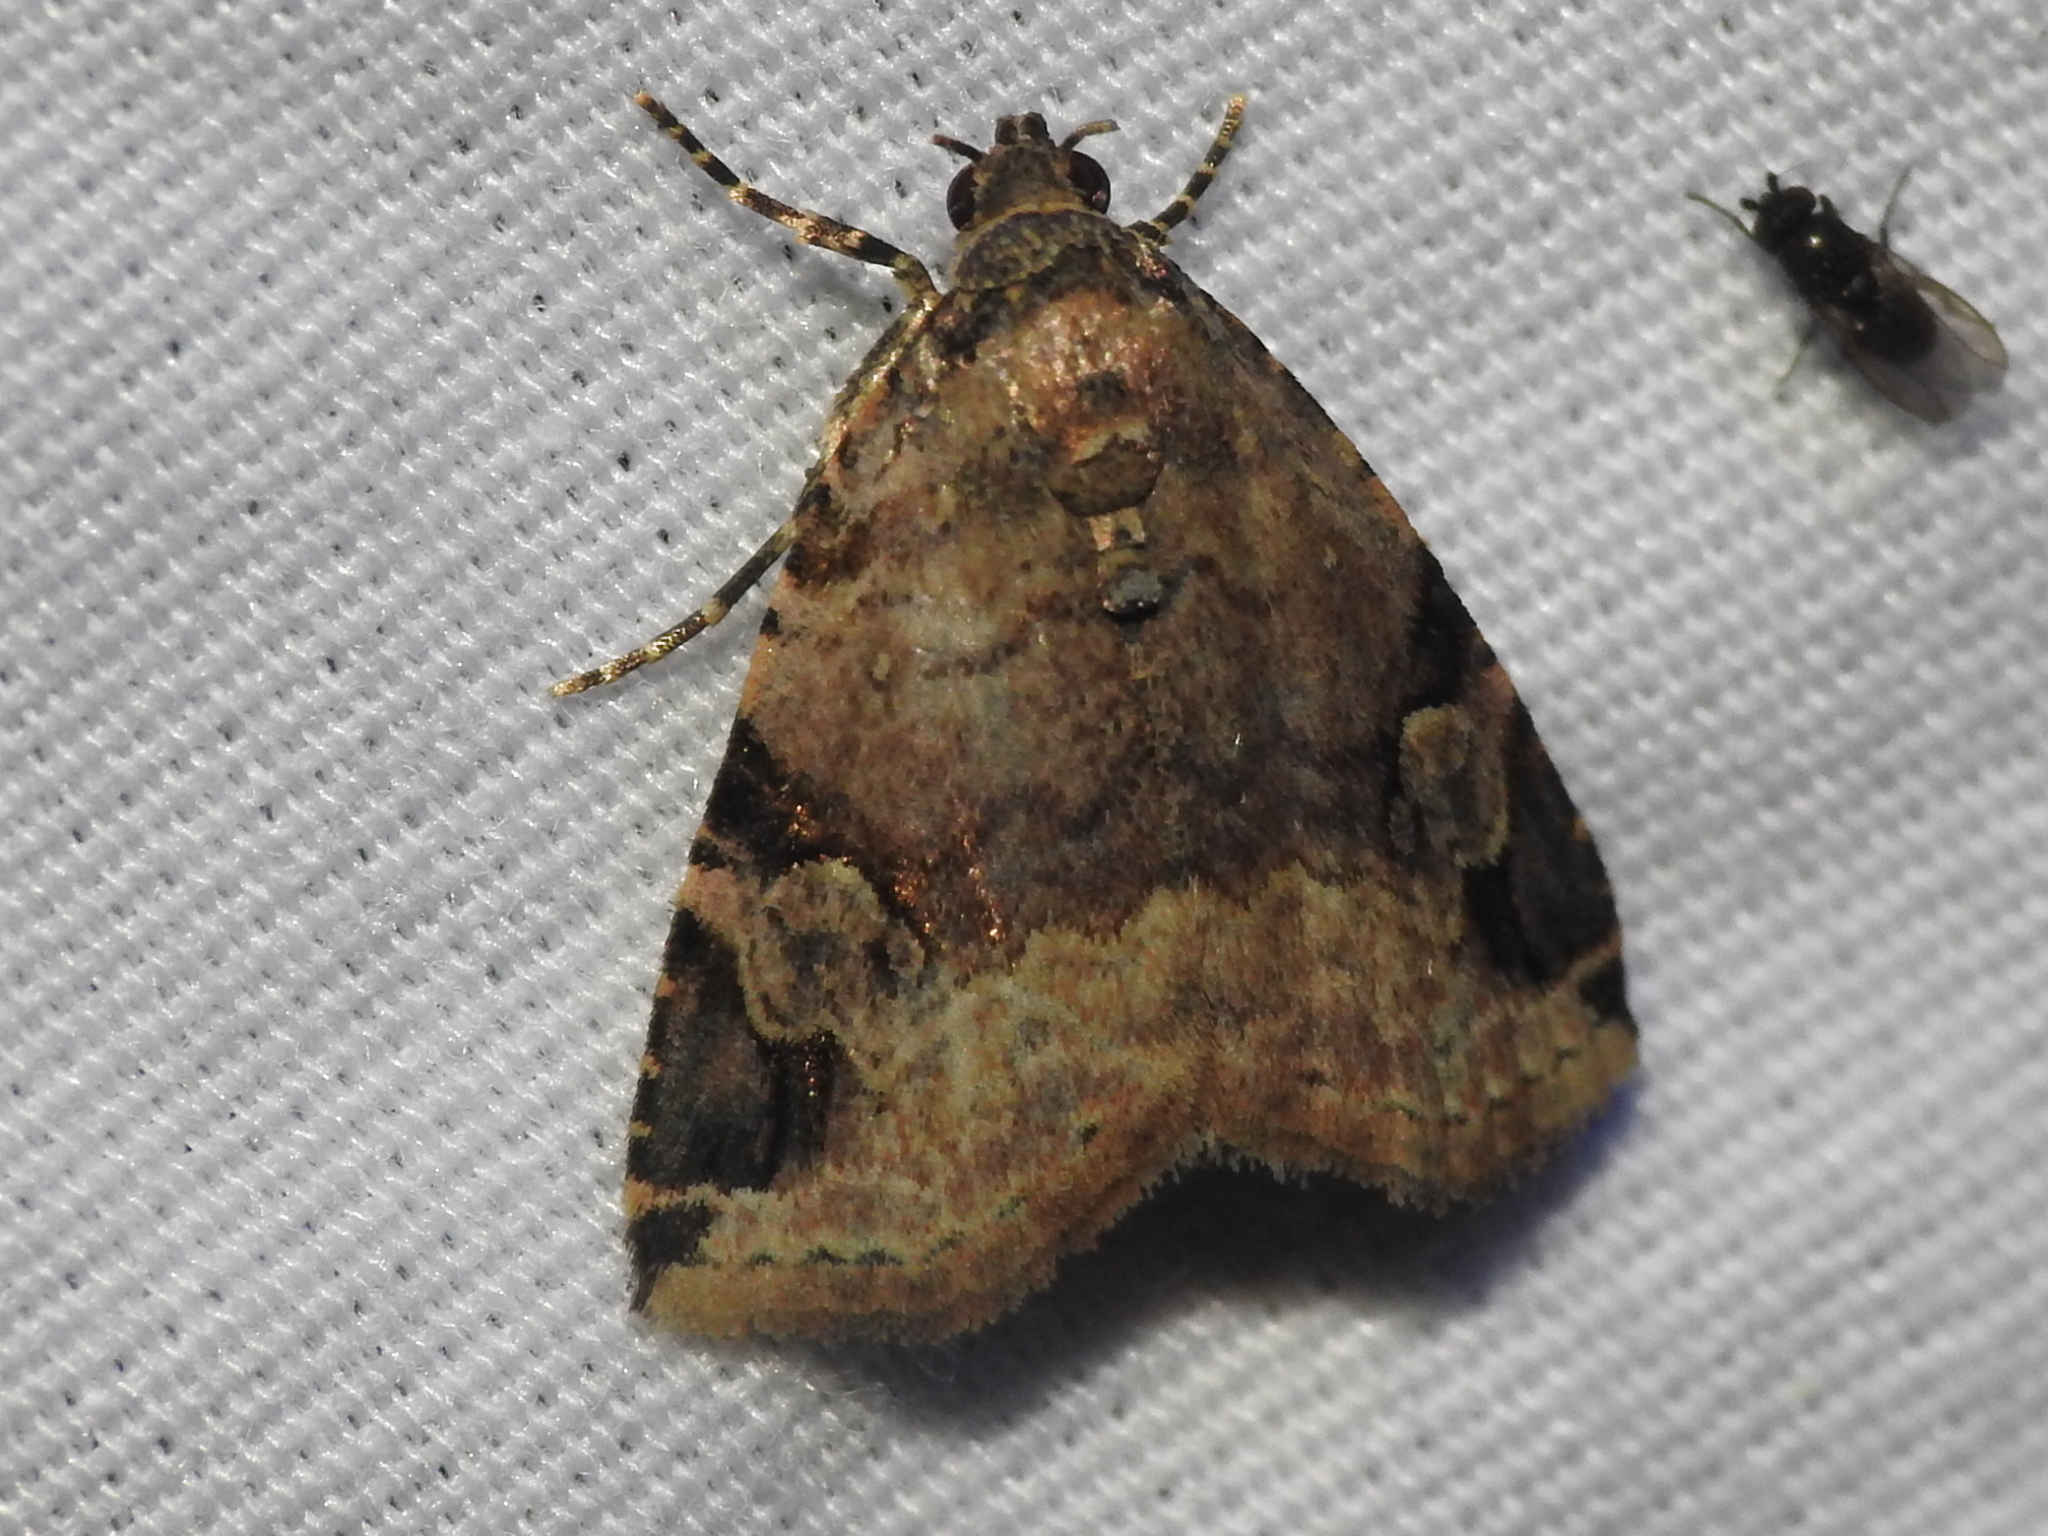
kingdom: Animalia
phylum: Arthropoda
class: Insecta
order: Lepidoptera
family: Noctuidae
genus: Ozarba
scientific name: Ozarba aeria
